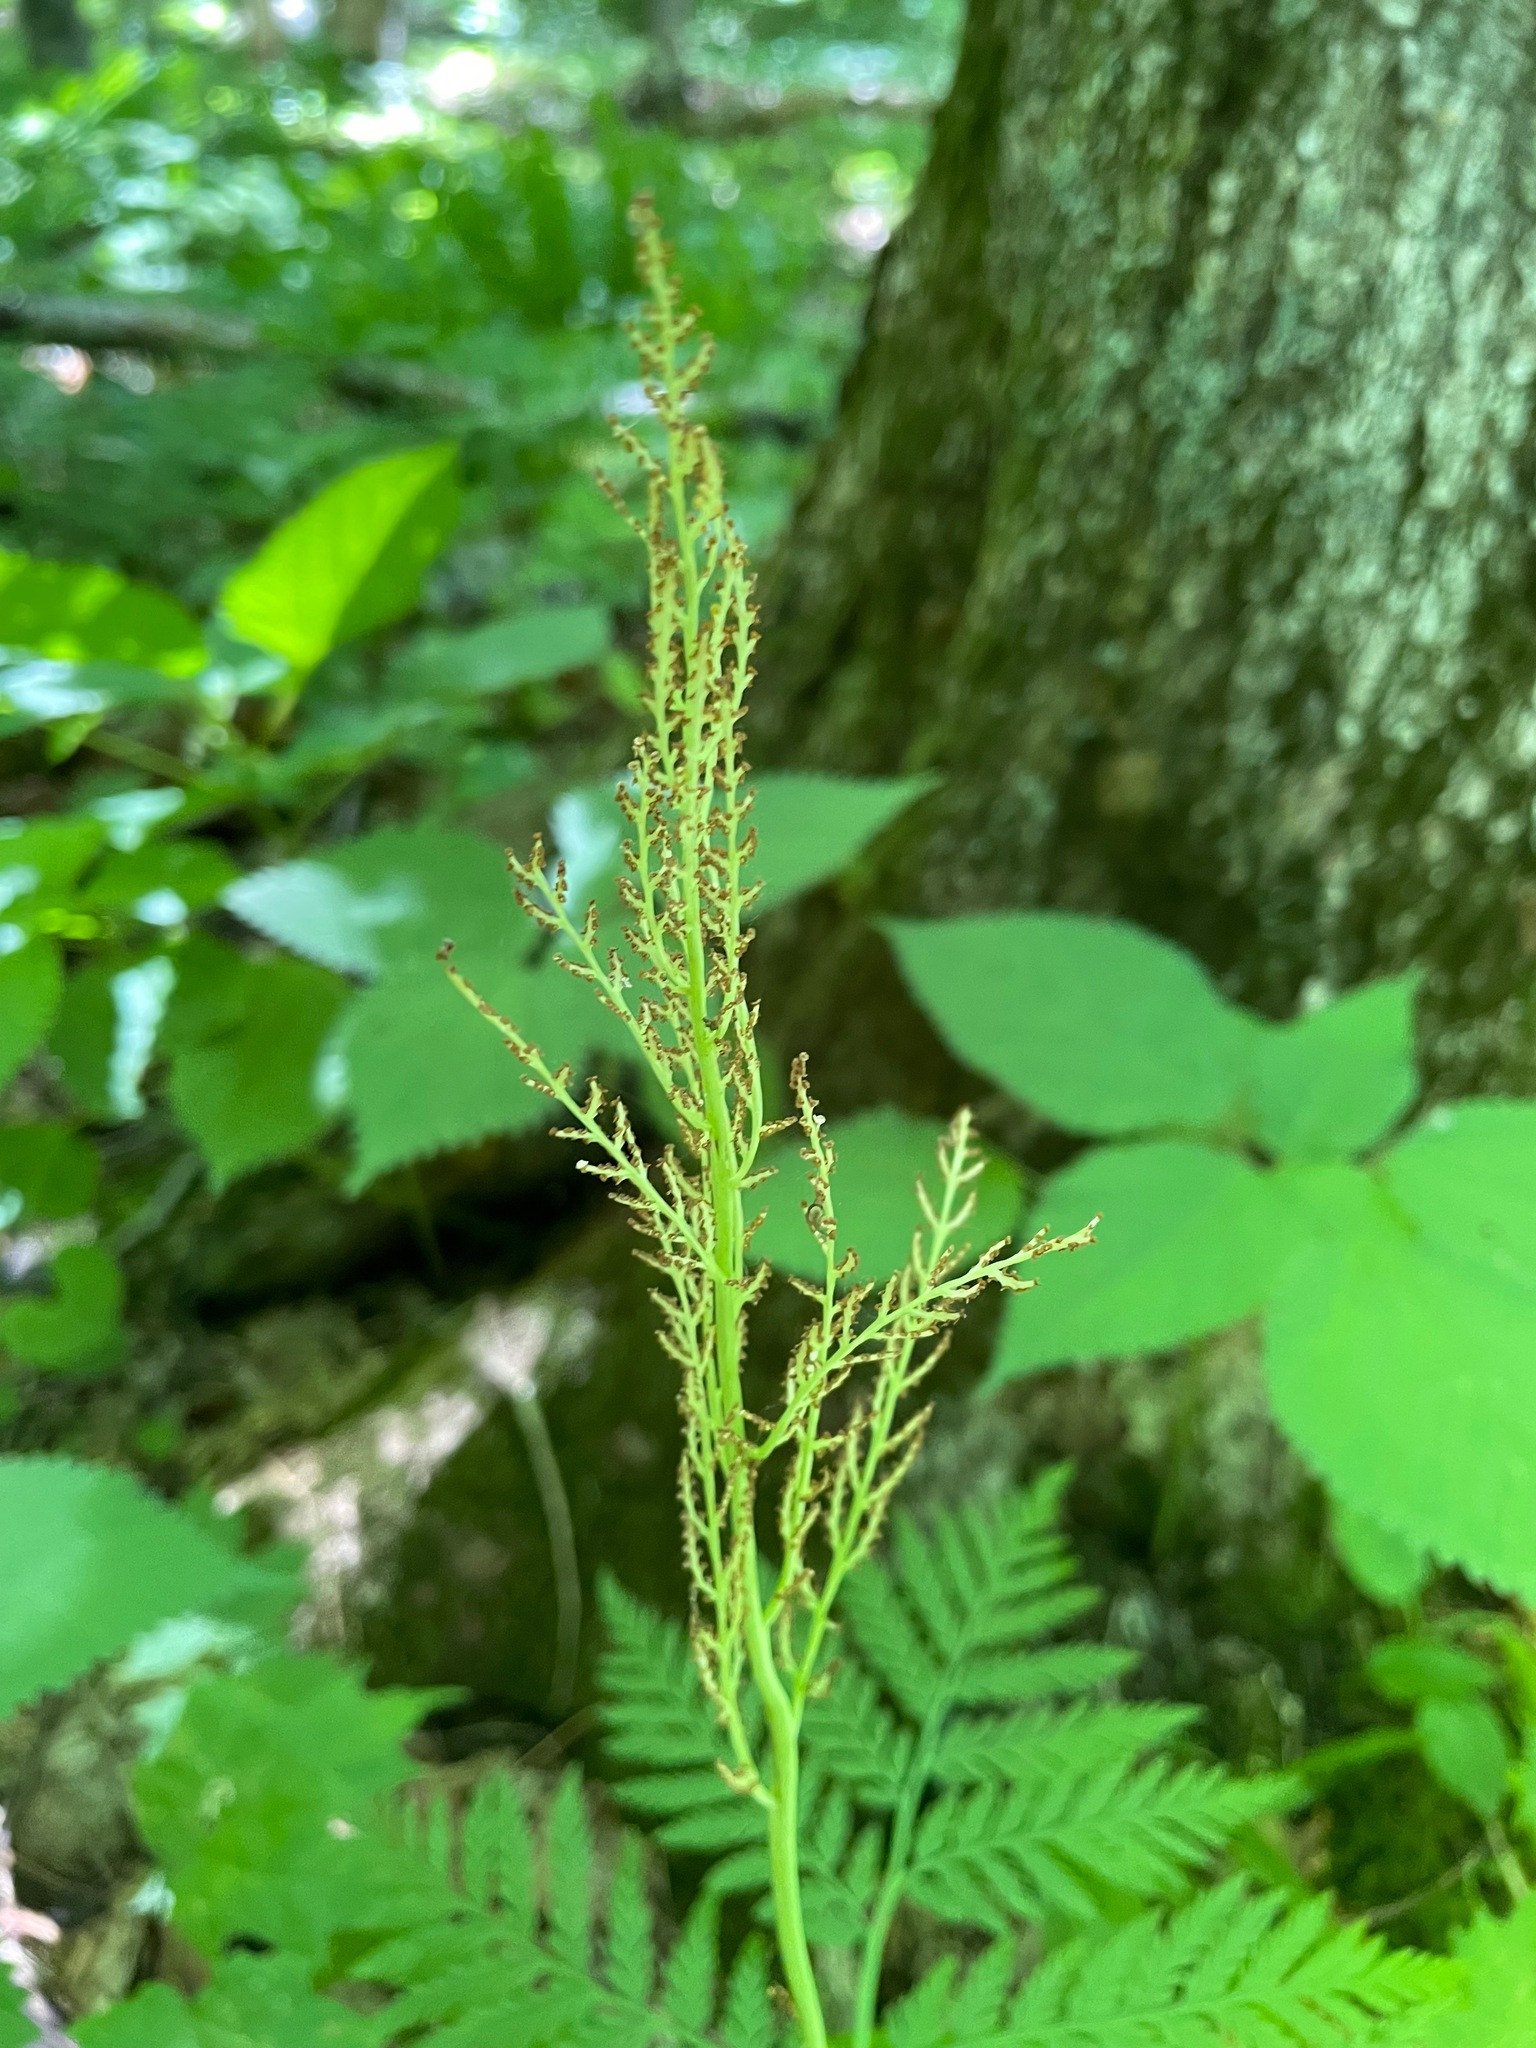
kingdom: Plantae
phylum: Tracheophyta
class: Polypodiopsida
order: Ophioglossales
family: Ophioglossaceae
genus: Botrypus
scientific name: Botrypus virginianus
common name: Common grapefern
